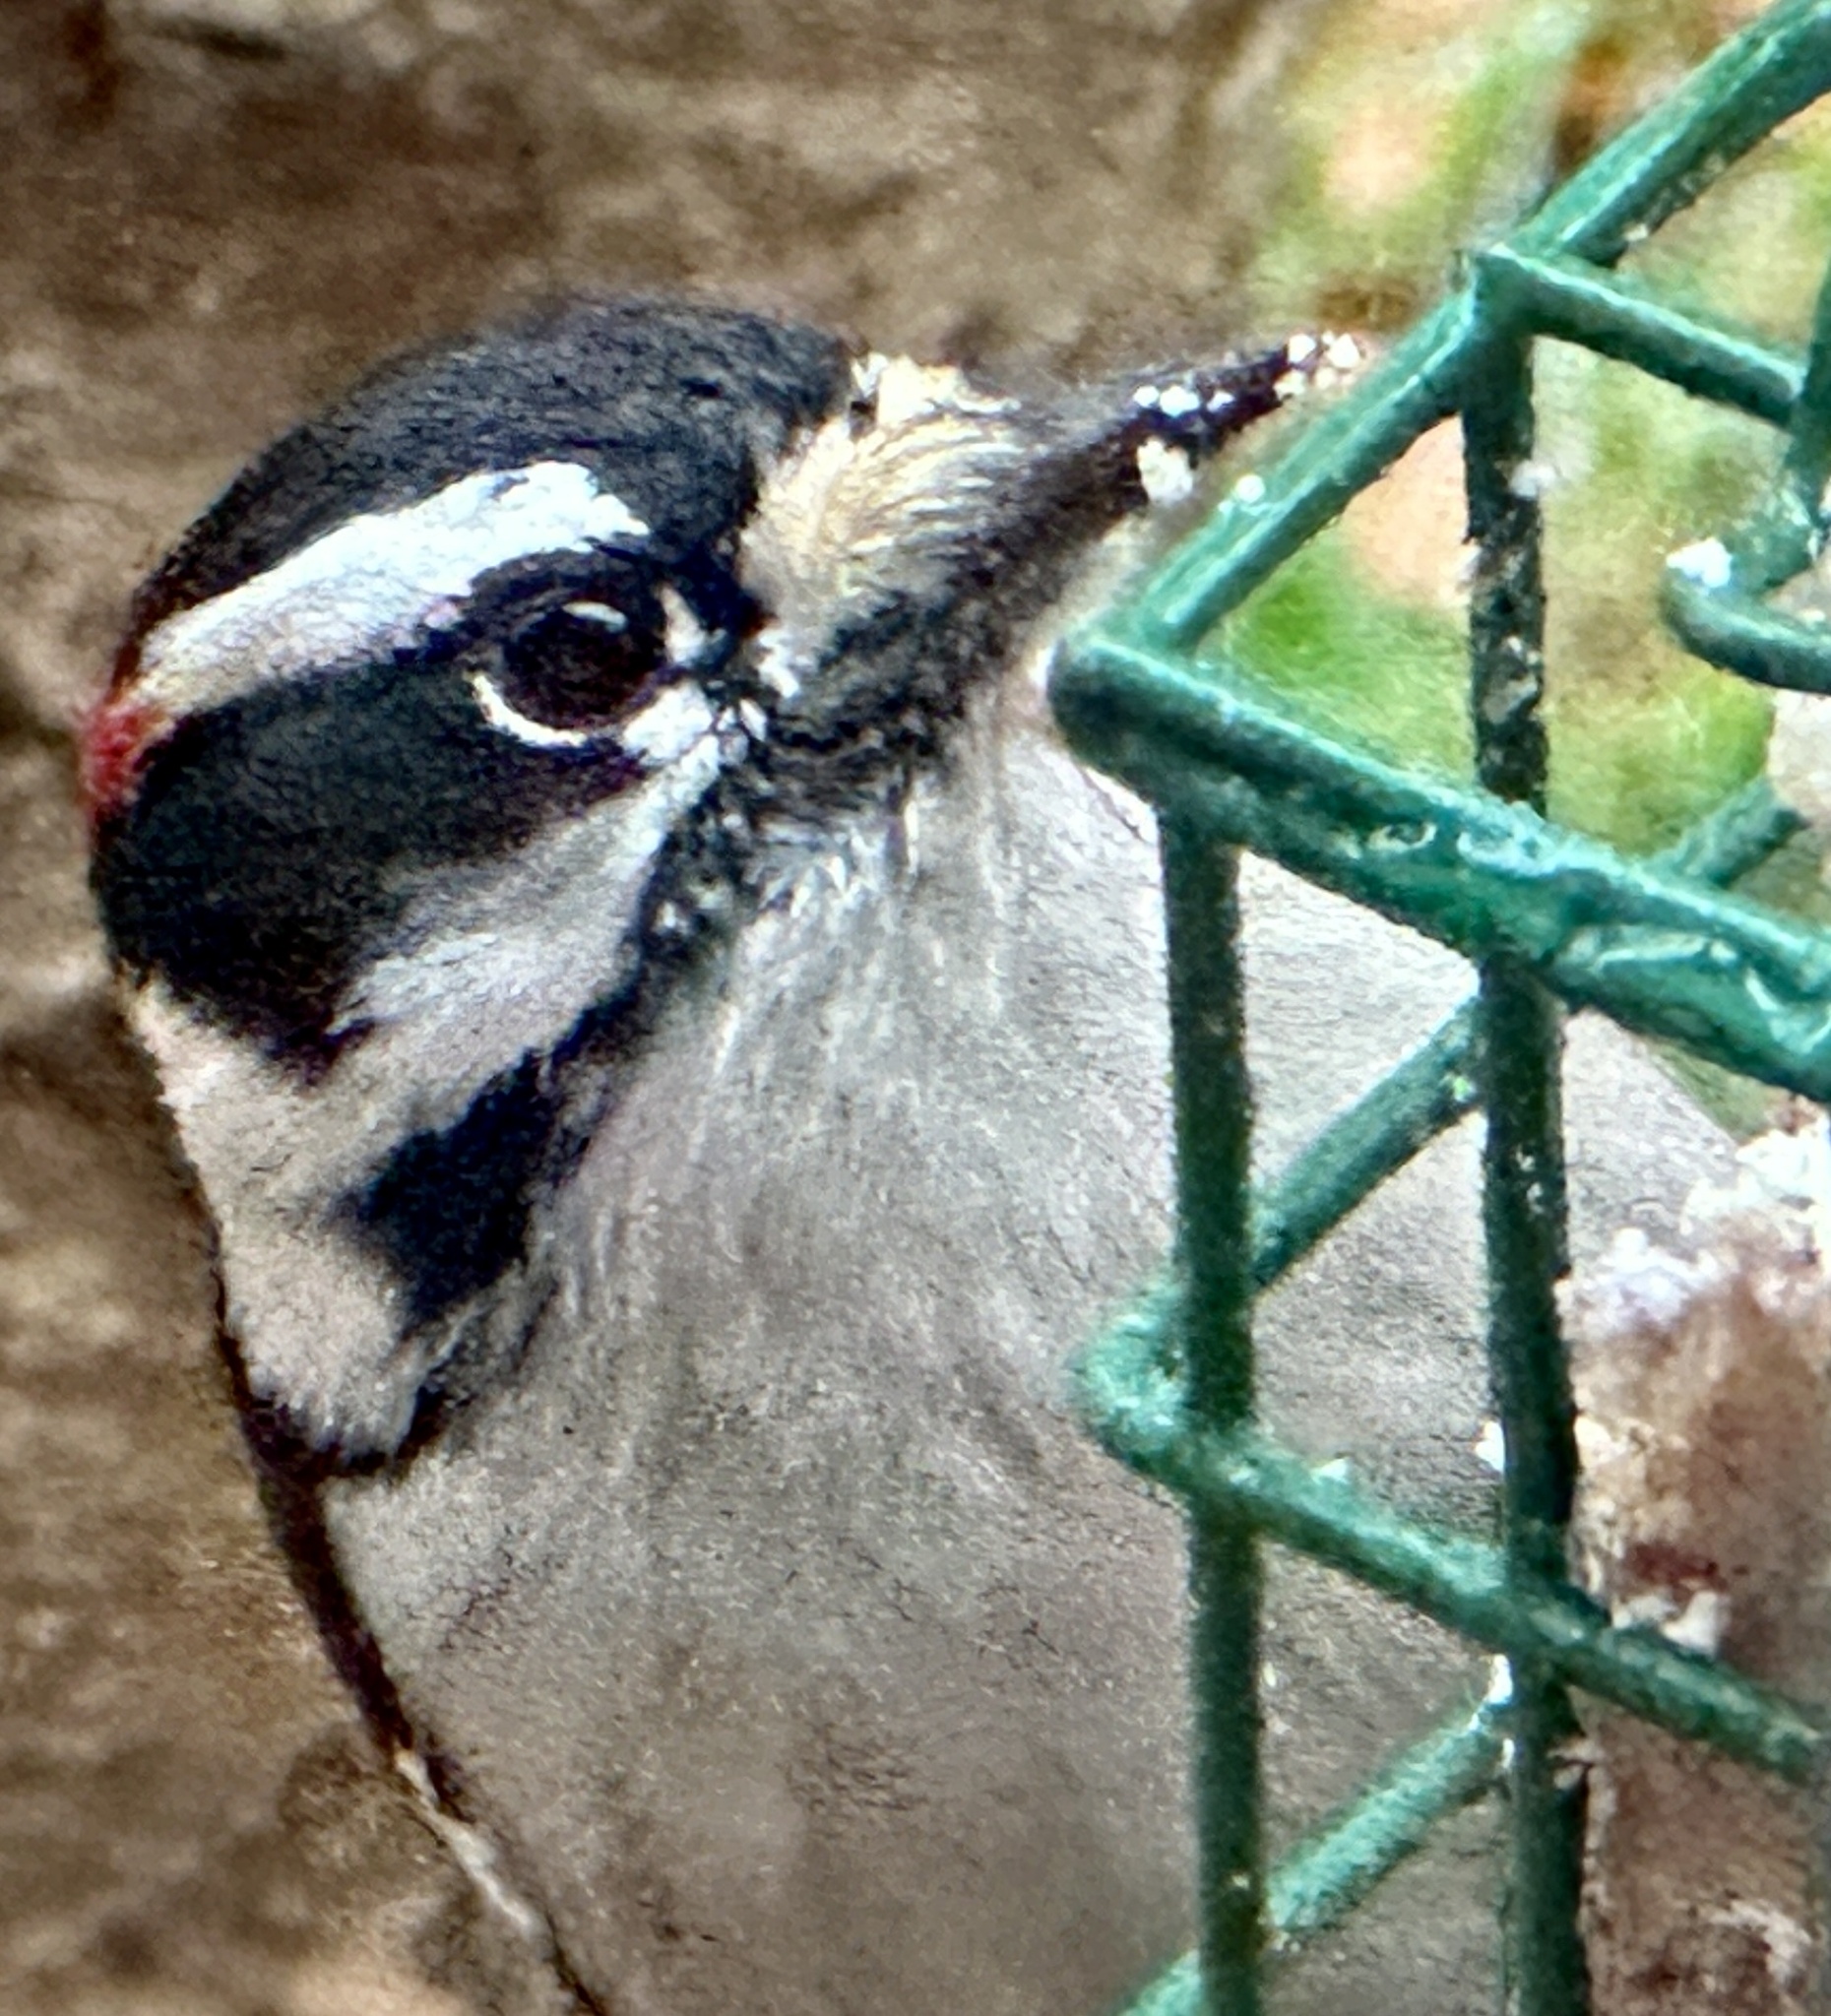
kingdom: Animalia
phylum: Chordata
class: Aves
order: Piciformes
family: Picidae
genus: Dryobates
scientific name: Dryobates pubescens
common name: Downy woodpecker
